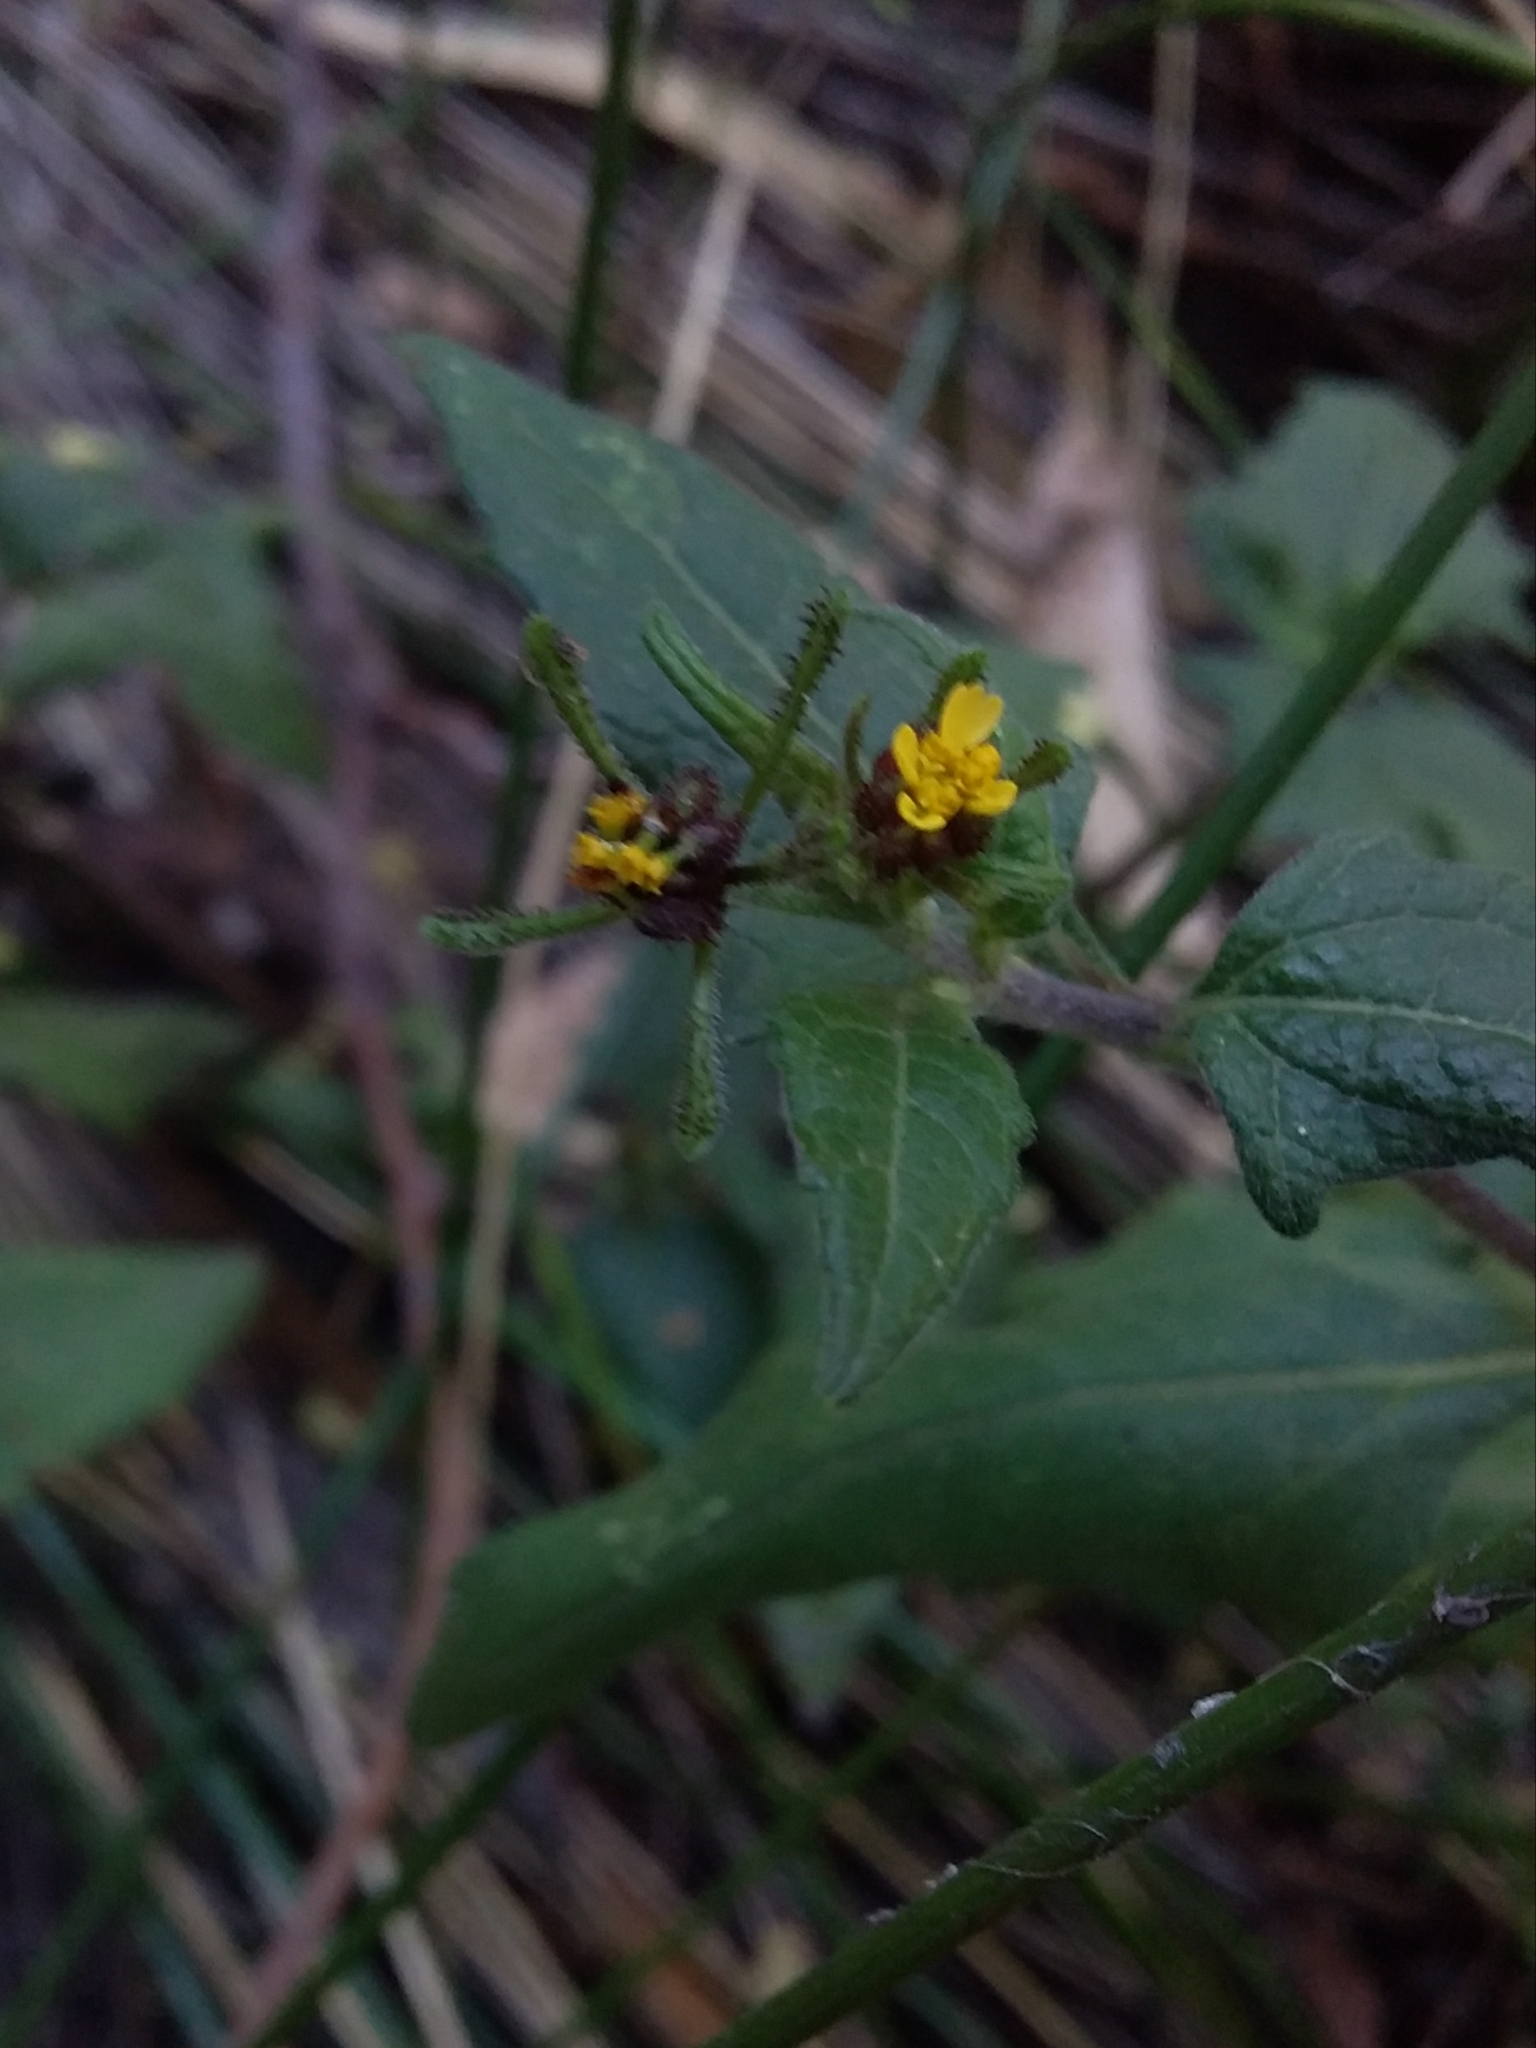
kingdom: Plantae
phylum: Tracheophyta
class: Magnoliopsida
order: Asterales
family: Asteraceae
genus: Sigesbeckia
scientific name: Sigesbeckia orientalis
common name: Eastern st paul's-wort
